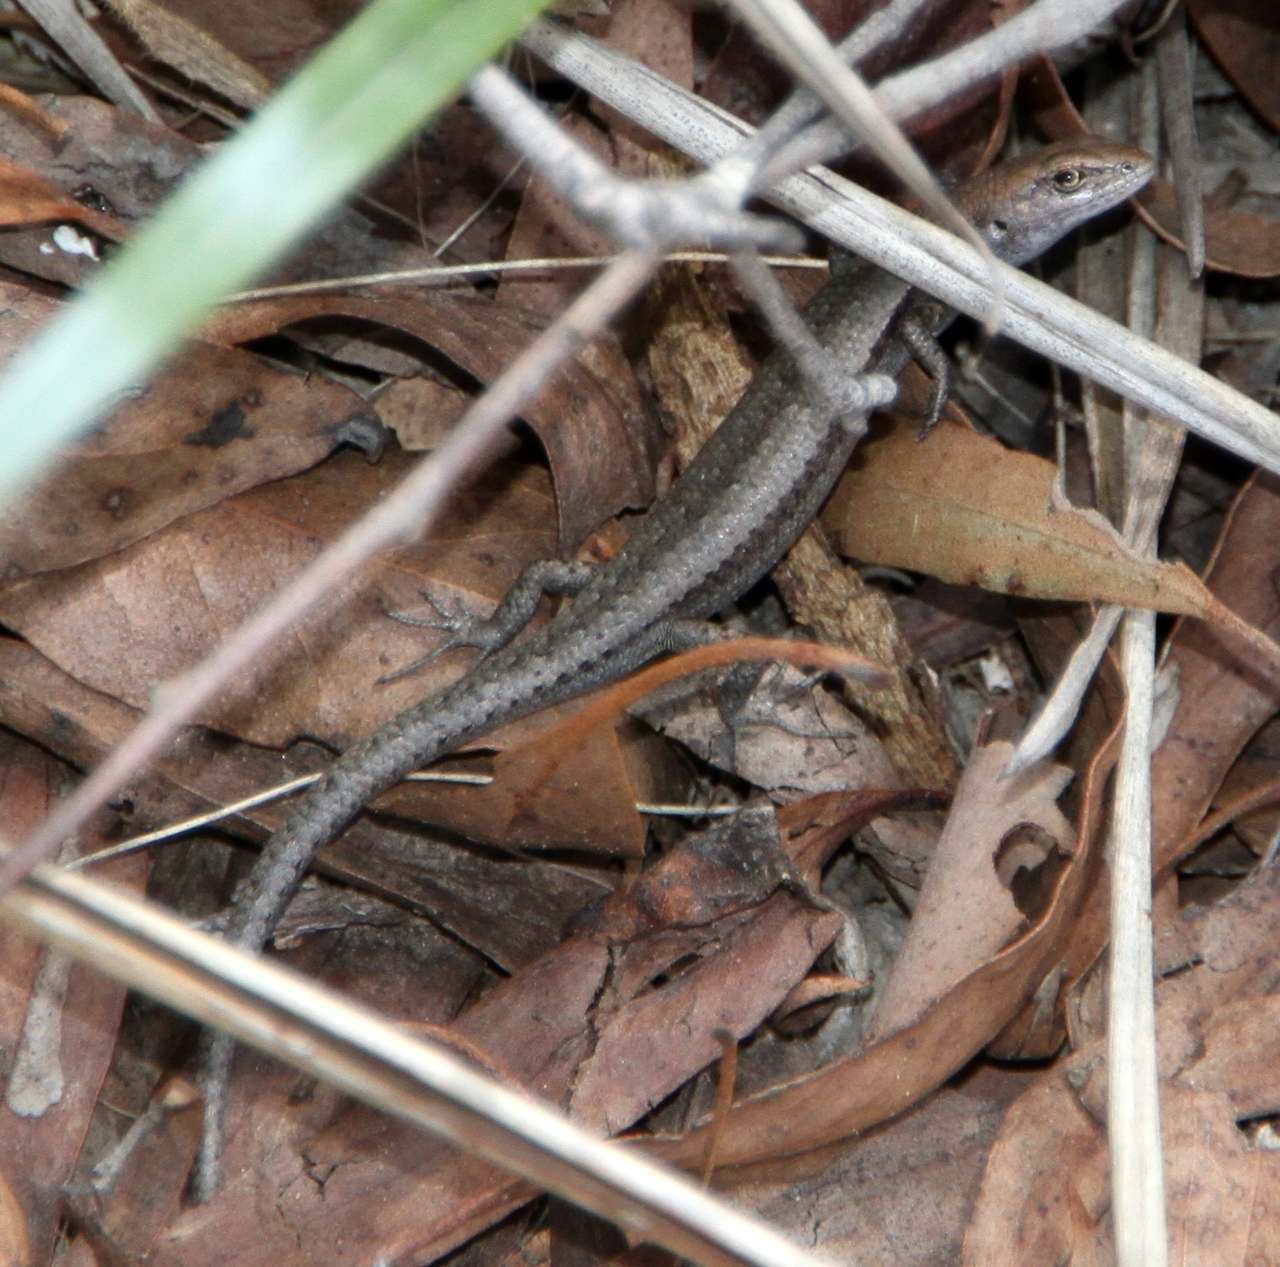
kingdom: Animalia
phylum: Chordata
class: Squamata
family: Scincidae
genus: Lampropholis
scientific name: Lampropholis guichenoti
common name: Garden skink
